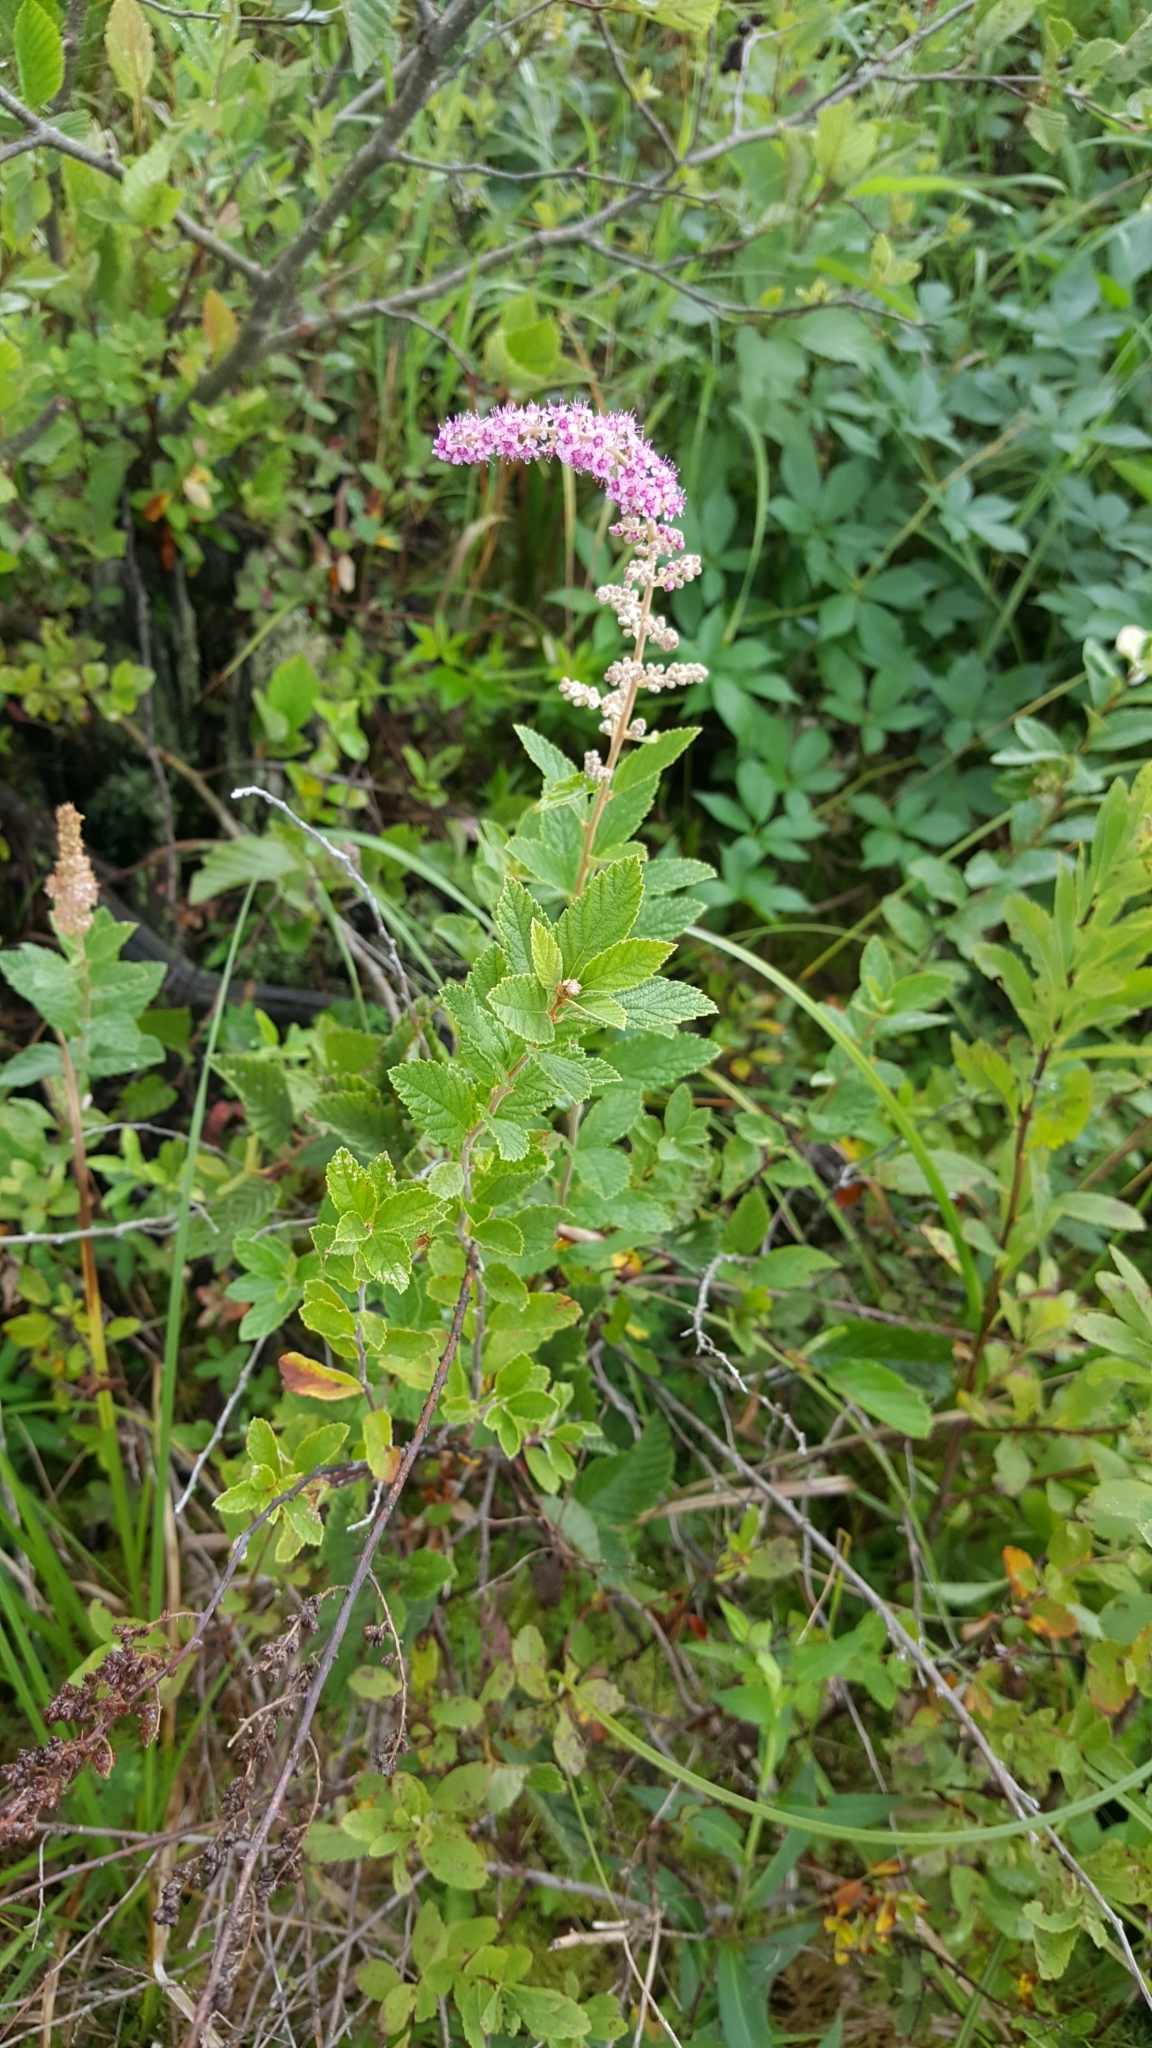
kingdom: Plantae
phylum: Tracheophyta
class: Magnoliopsida
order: Rosales
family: Rosaceae
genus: Spiraea
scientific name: Spiraea tomentosa
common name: Hardhack
